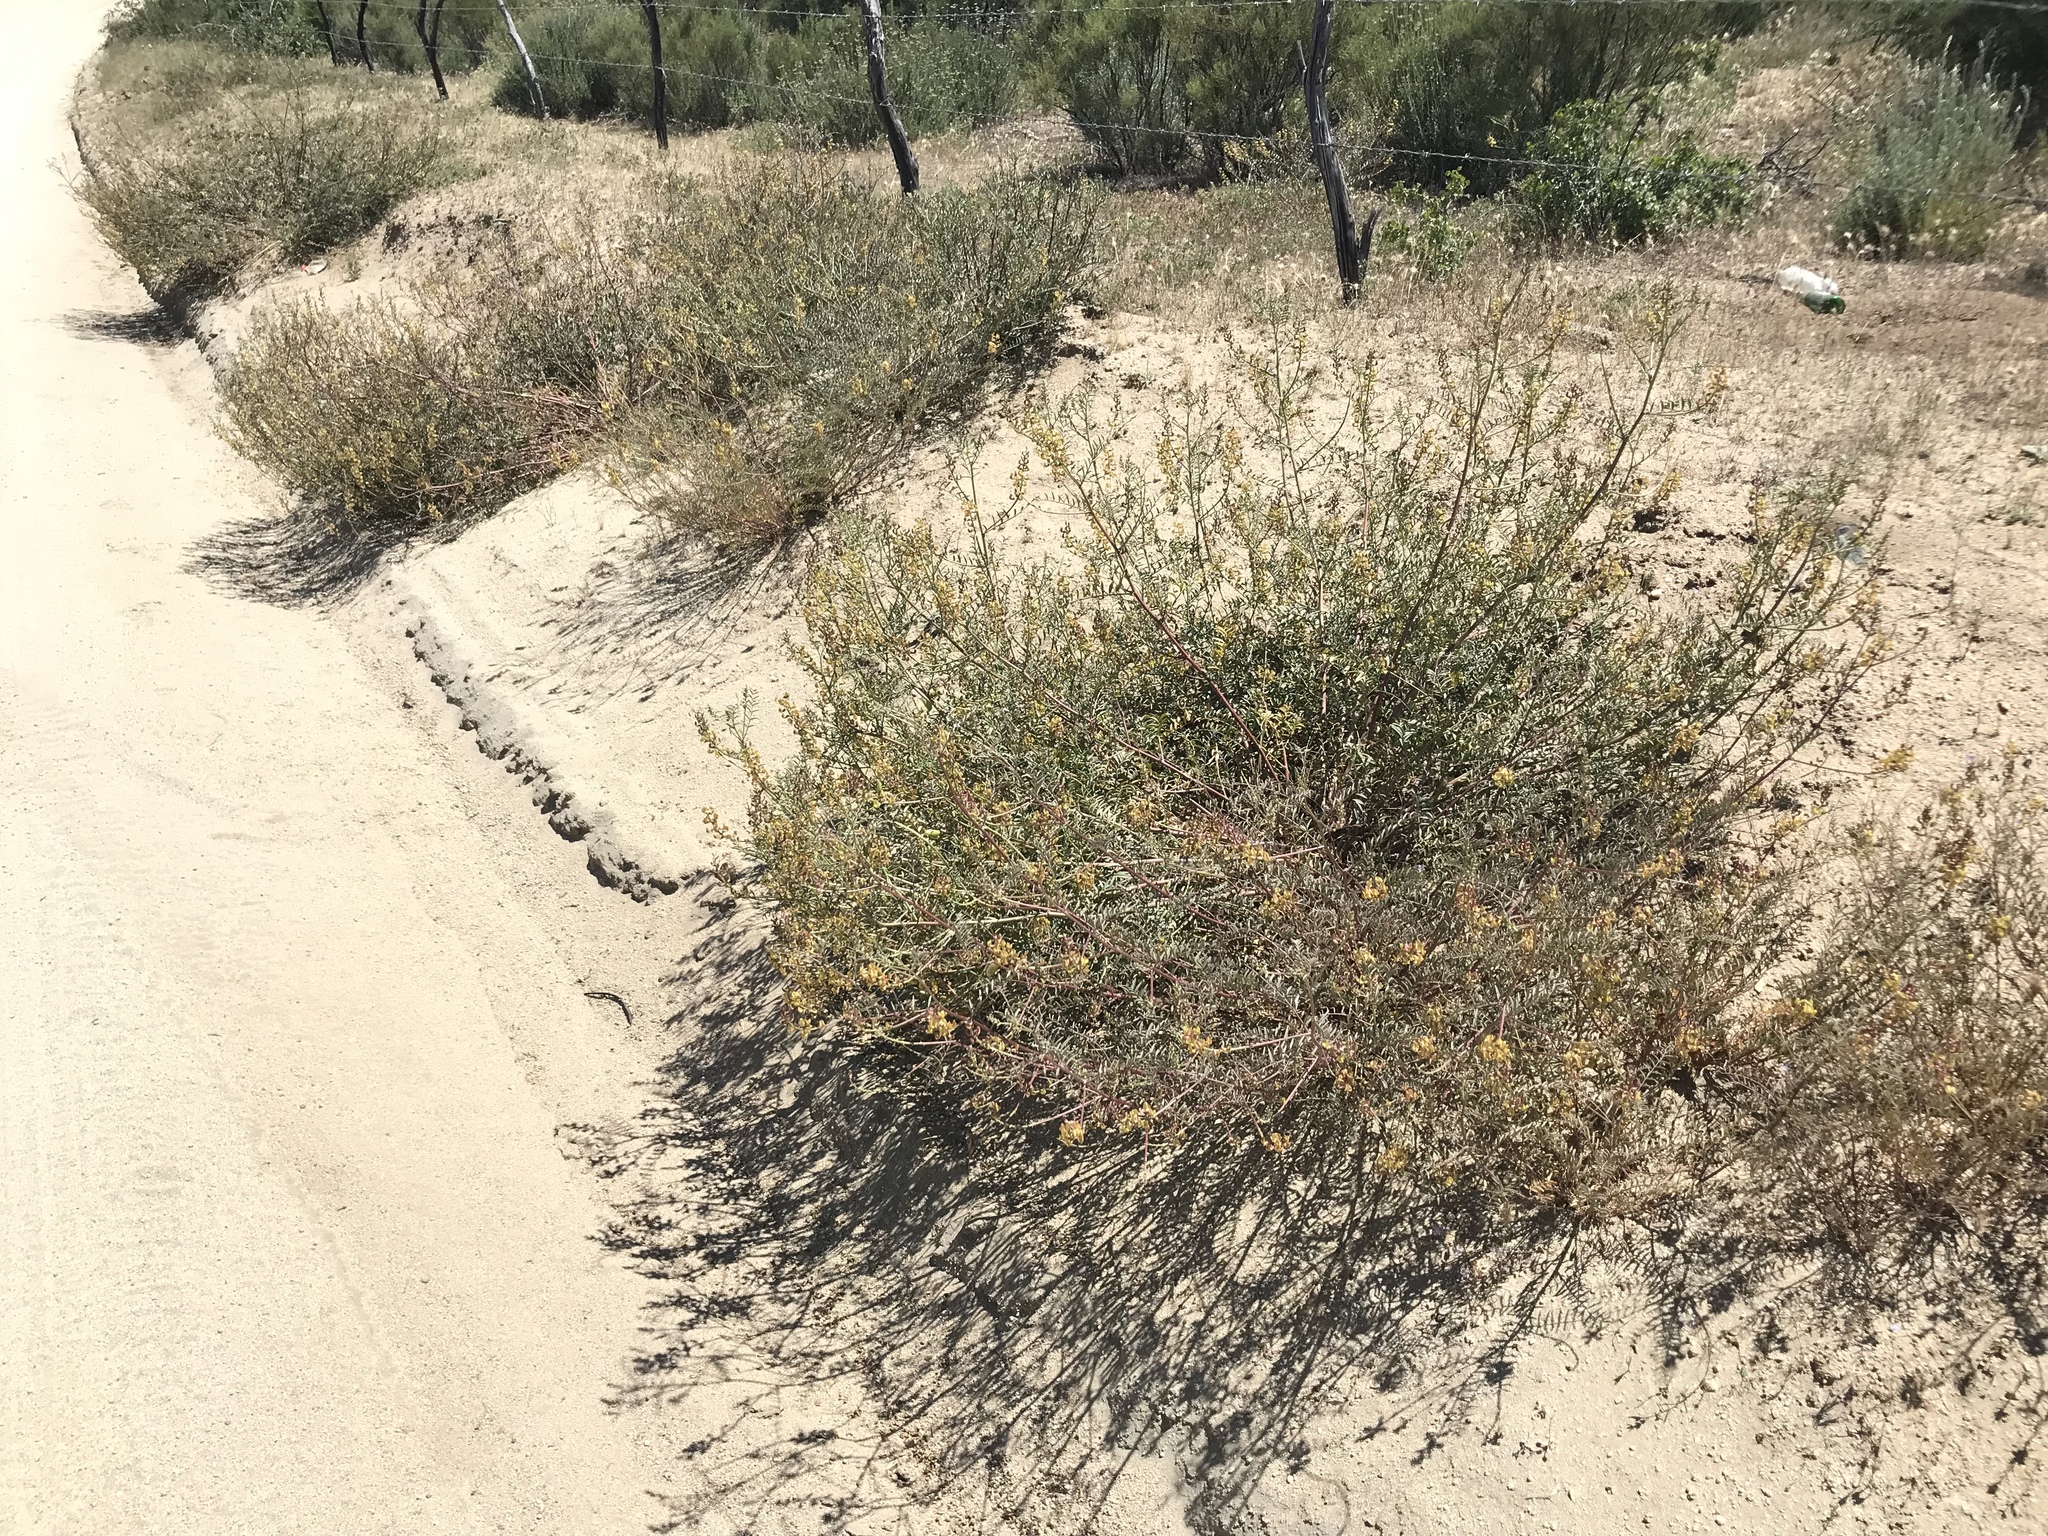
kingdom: Plantae
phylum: Tracheophyta
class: Magnoliopsida
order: Fabales
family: Fabaceae
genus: Astragalus
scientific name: Astragalus douglasii
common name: Jacumba milkvetch
